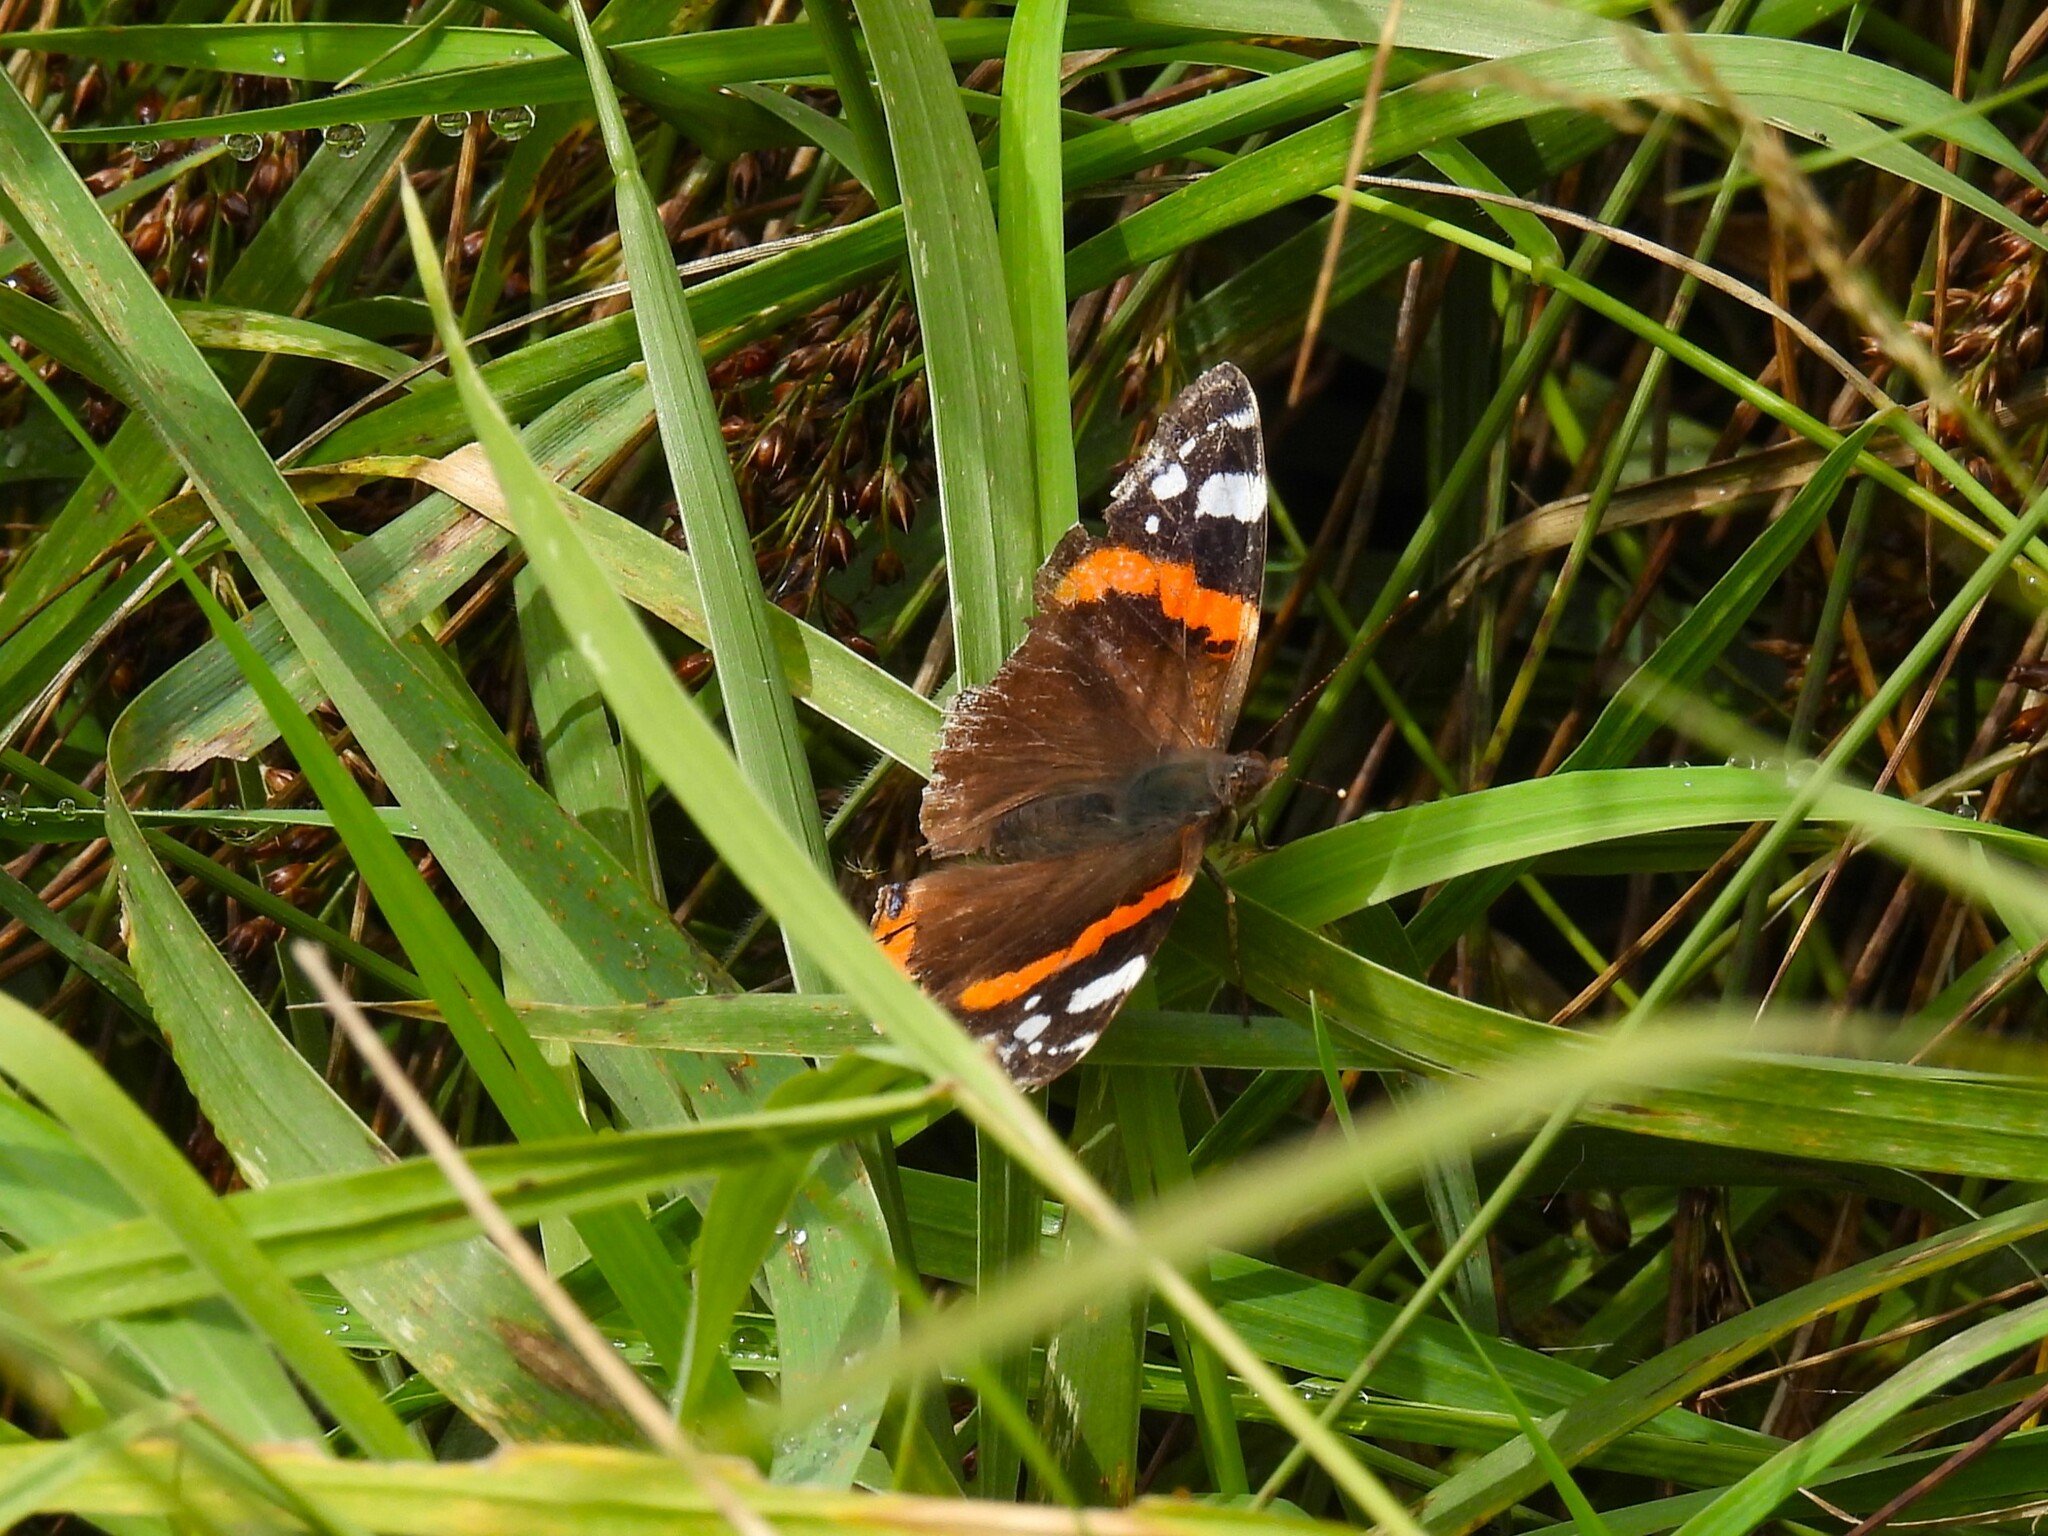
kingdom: Animalia
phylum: Arthropoda
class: Insecta
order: Lepidoptera
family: Nymphalidae
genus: Vanessa
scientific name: Vanessa atalanta
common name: Red admiral
